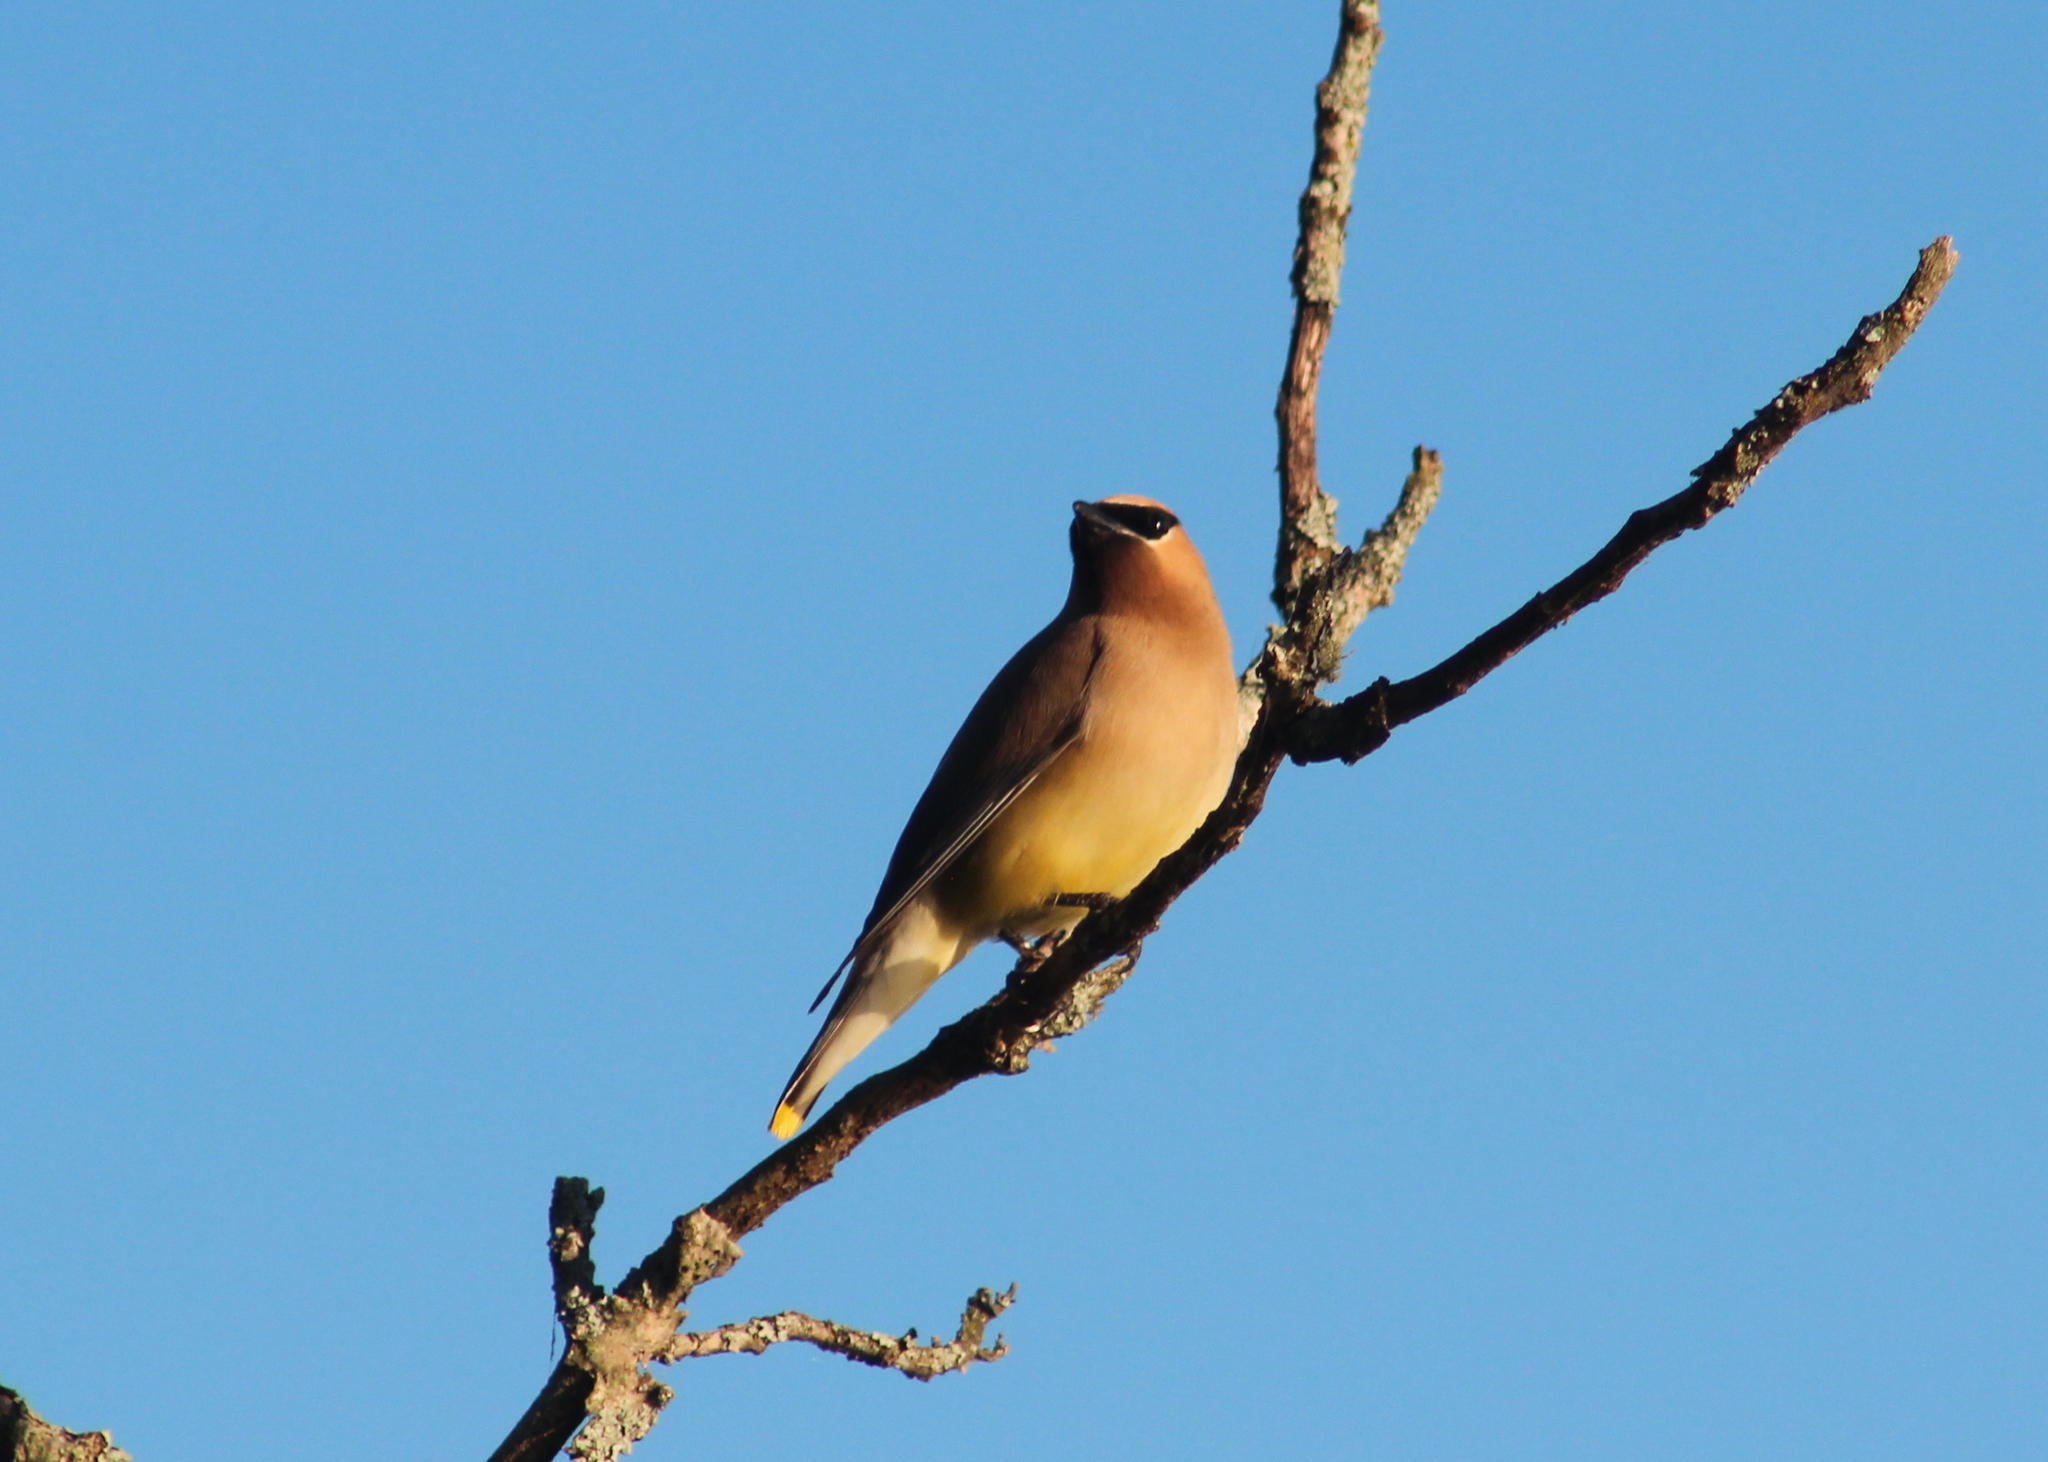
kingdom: Animalia
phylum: Chordata
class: Aves
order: Passeriformes
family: Bombycillidae
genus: Bombycilla
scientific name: Bombycilla cedrorum
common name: Cedar waxwing
